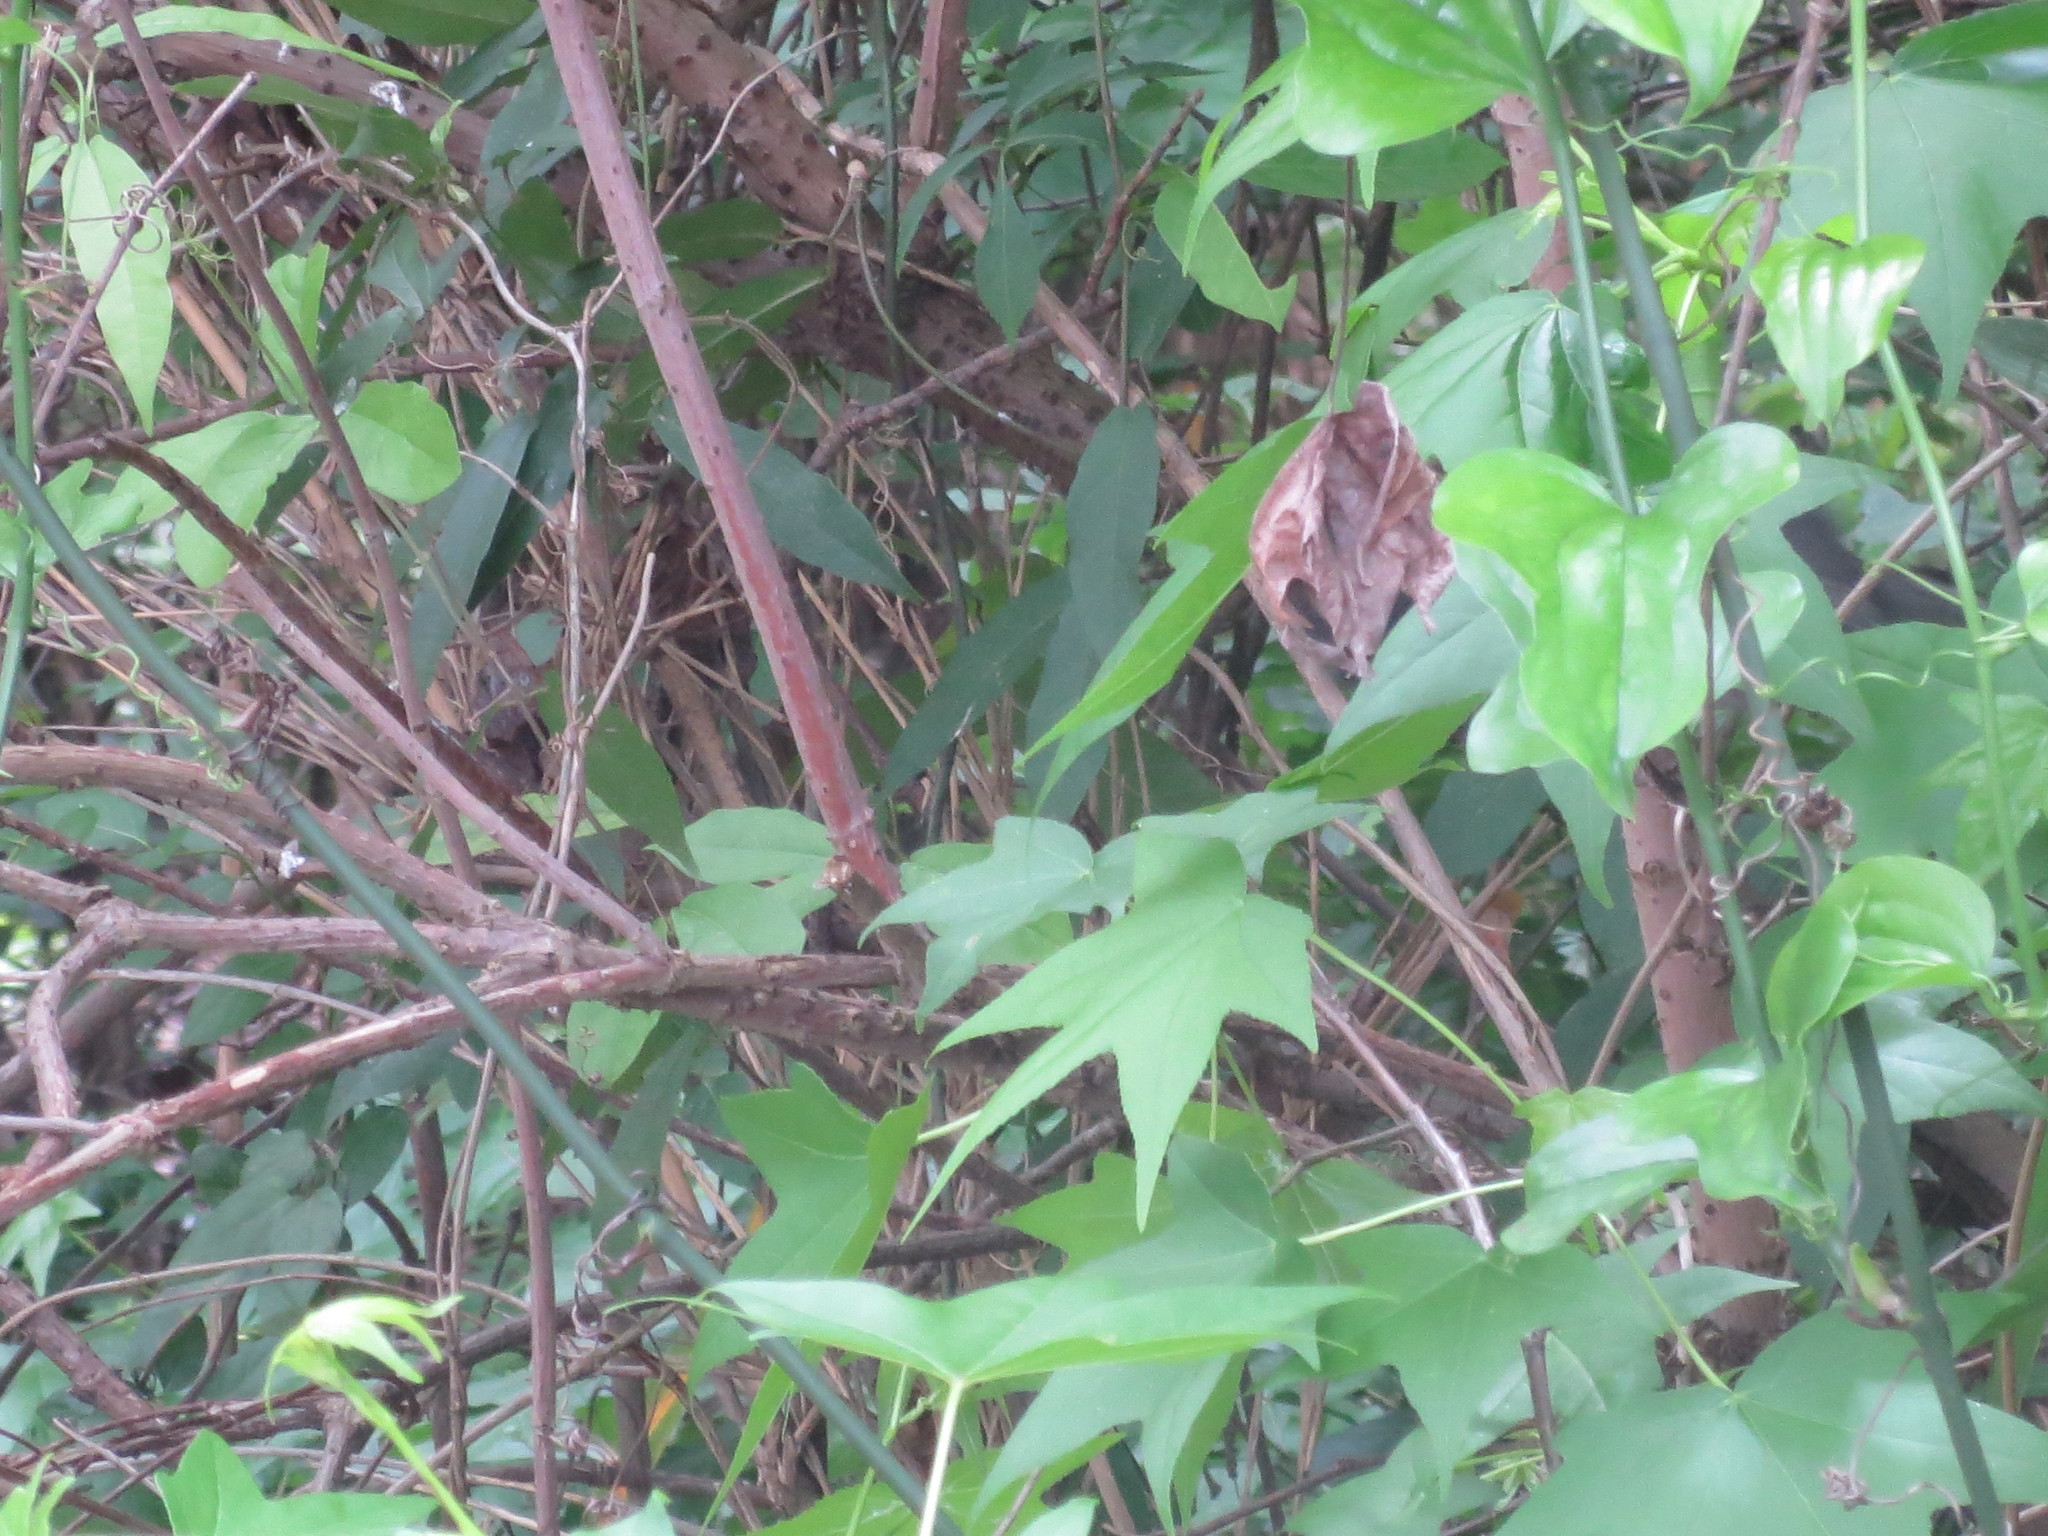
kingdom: Plantae
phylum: Tracheophyta
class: Magnoliopsida
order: Saxifragales
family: Altingiaceae
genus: Liquidambar
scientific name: Liquidambar styraciflua
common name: Sweet gum
